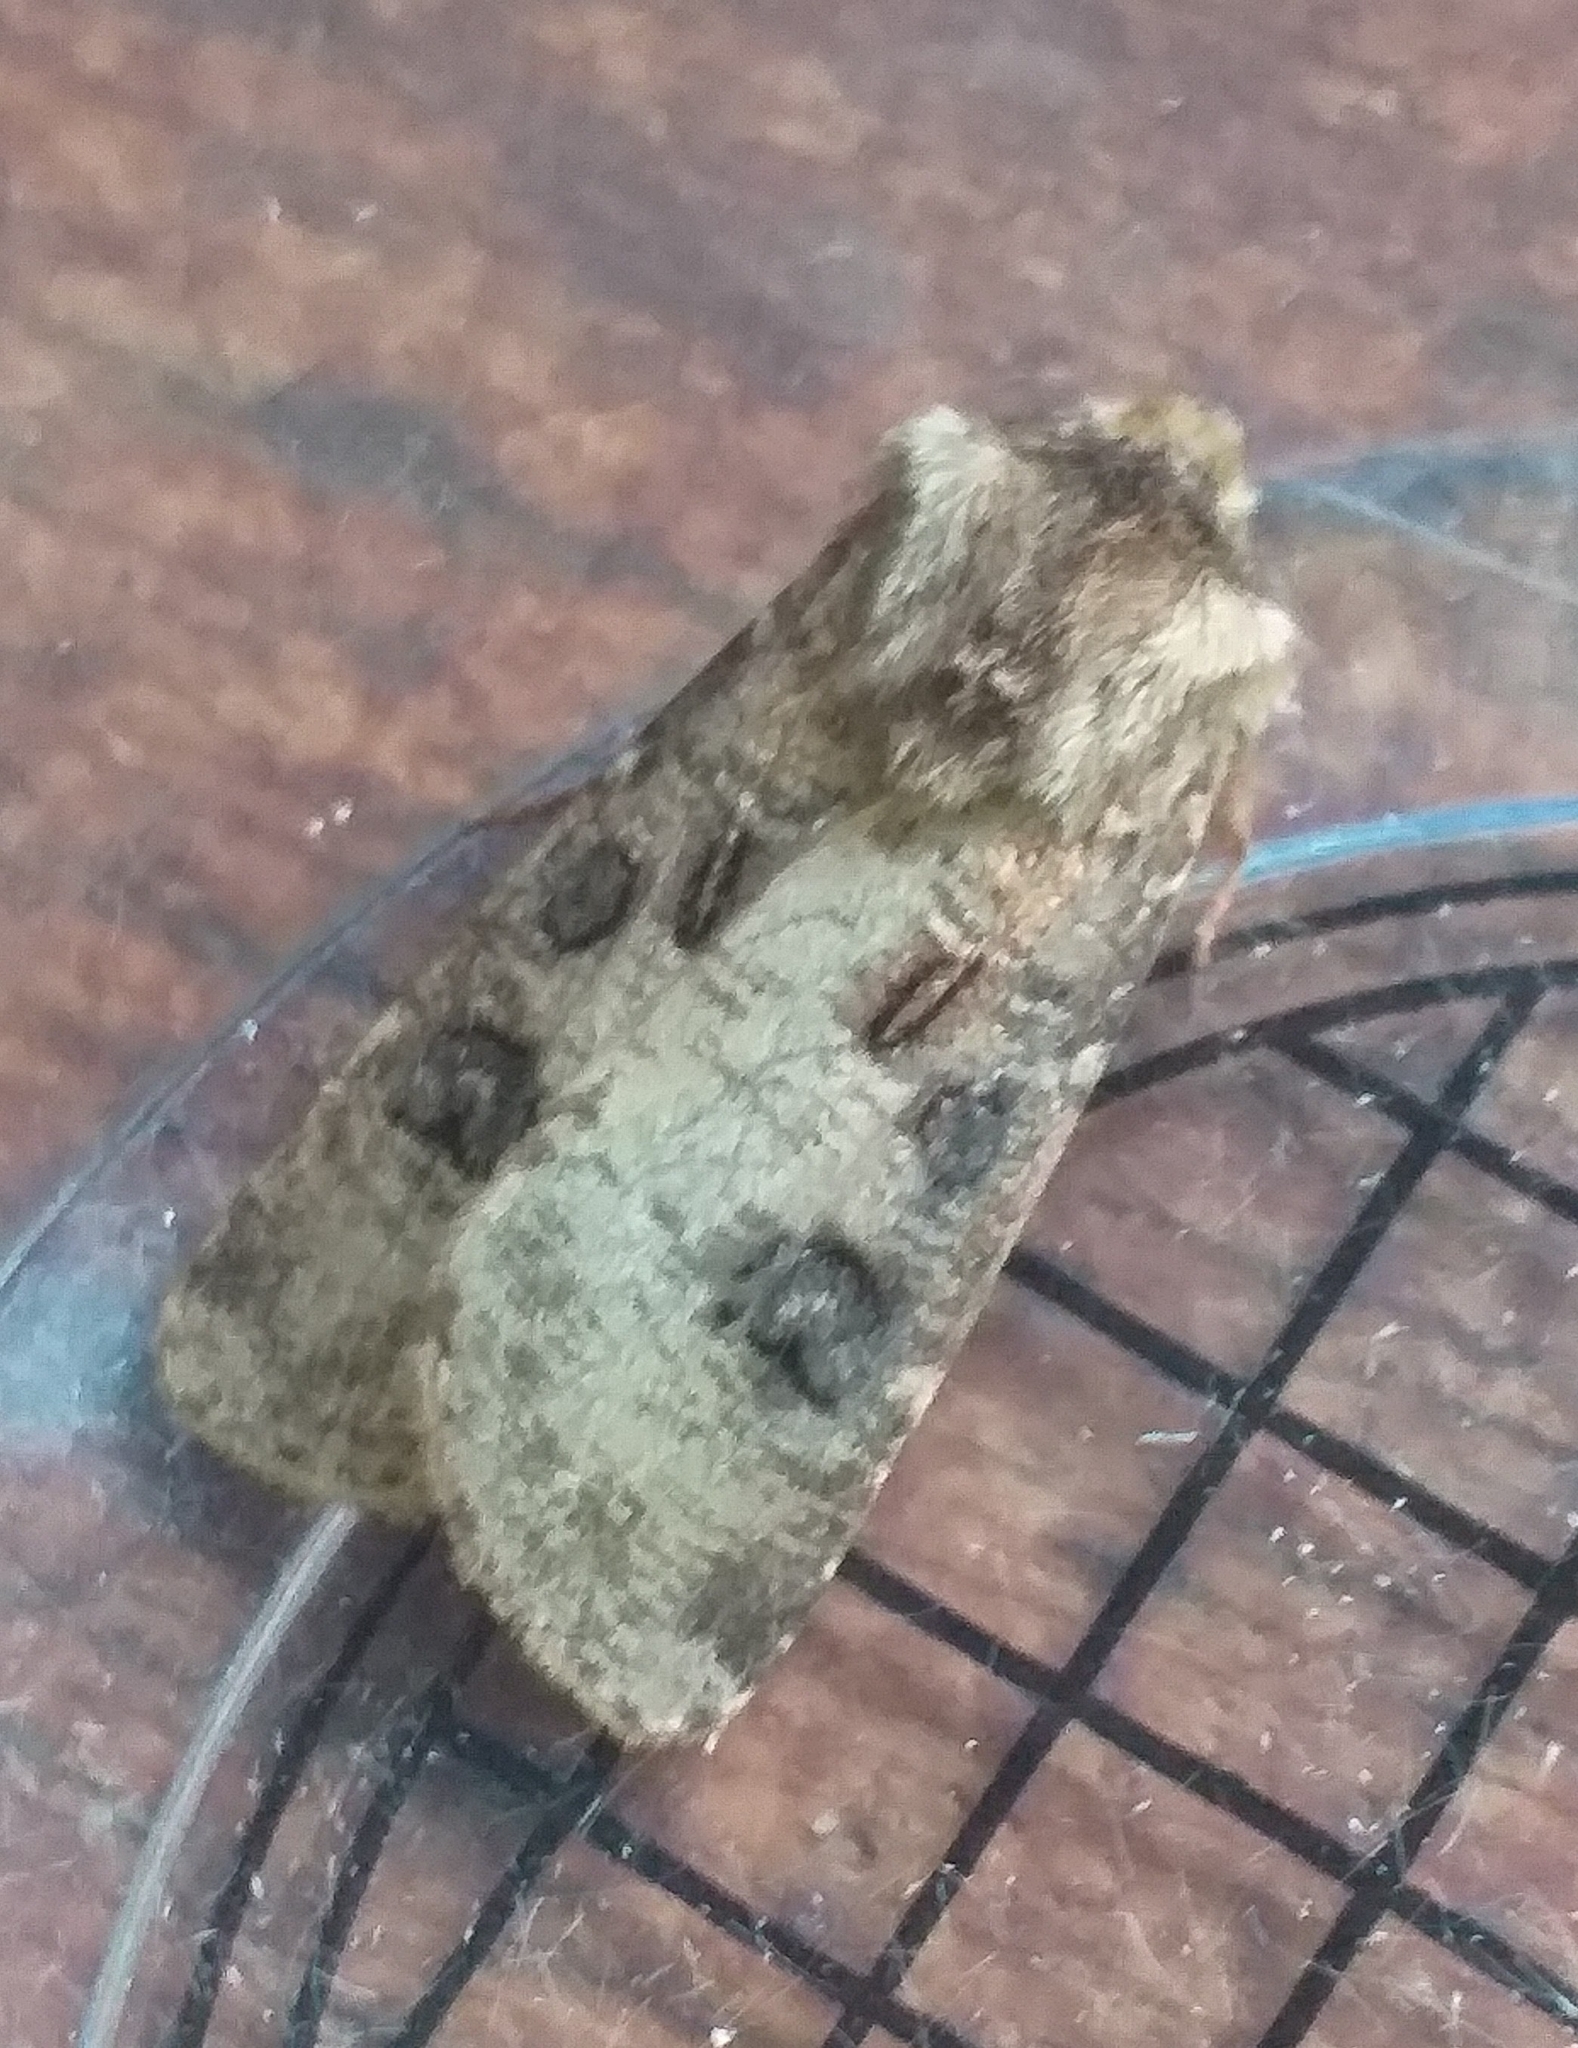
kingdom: Animalia
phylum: Arthropoda
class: Insecta
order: Lepidoptera
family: Noctuidae
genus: Agrotis
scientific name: Agrotis clavis
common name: Heart and club
